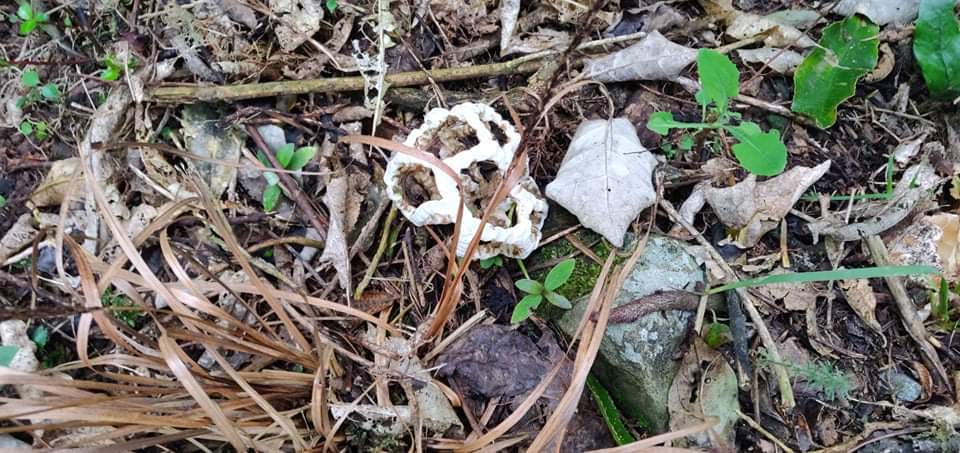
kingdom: Fungi
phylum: Basidiomycota
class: Agaricomycetes
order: Phallales
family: Phallaceae
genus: Ileodictyon
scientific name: Ileodictyon cibarium
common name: Basket fungus
